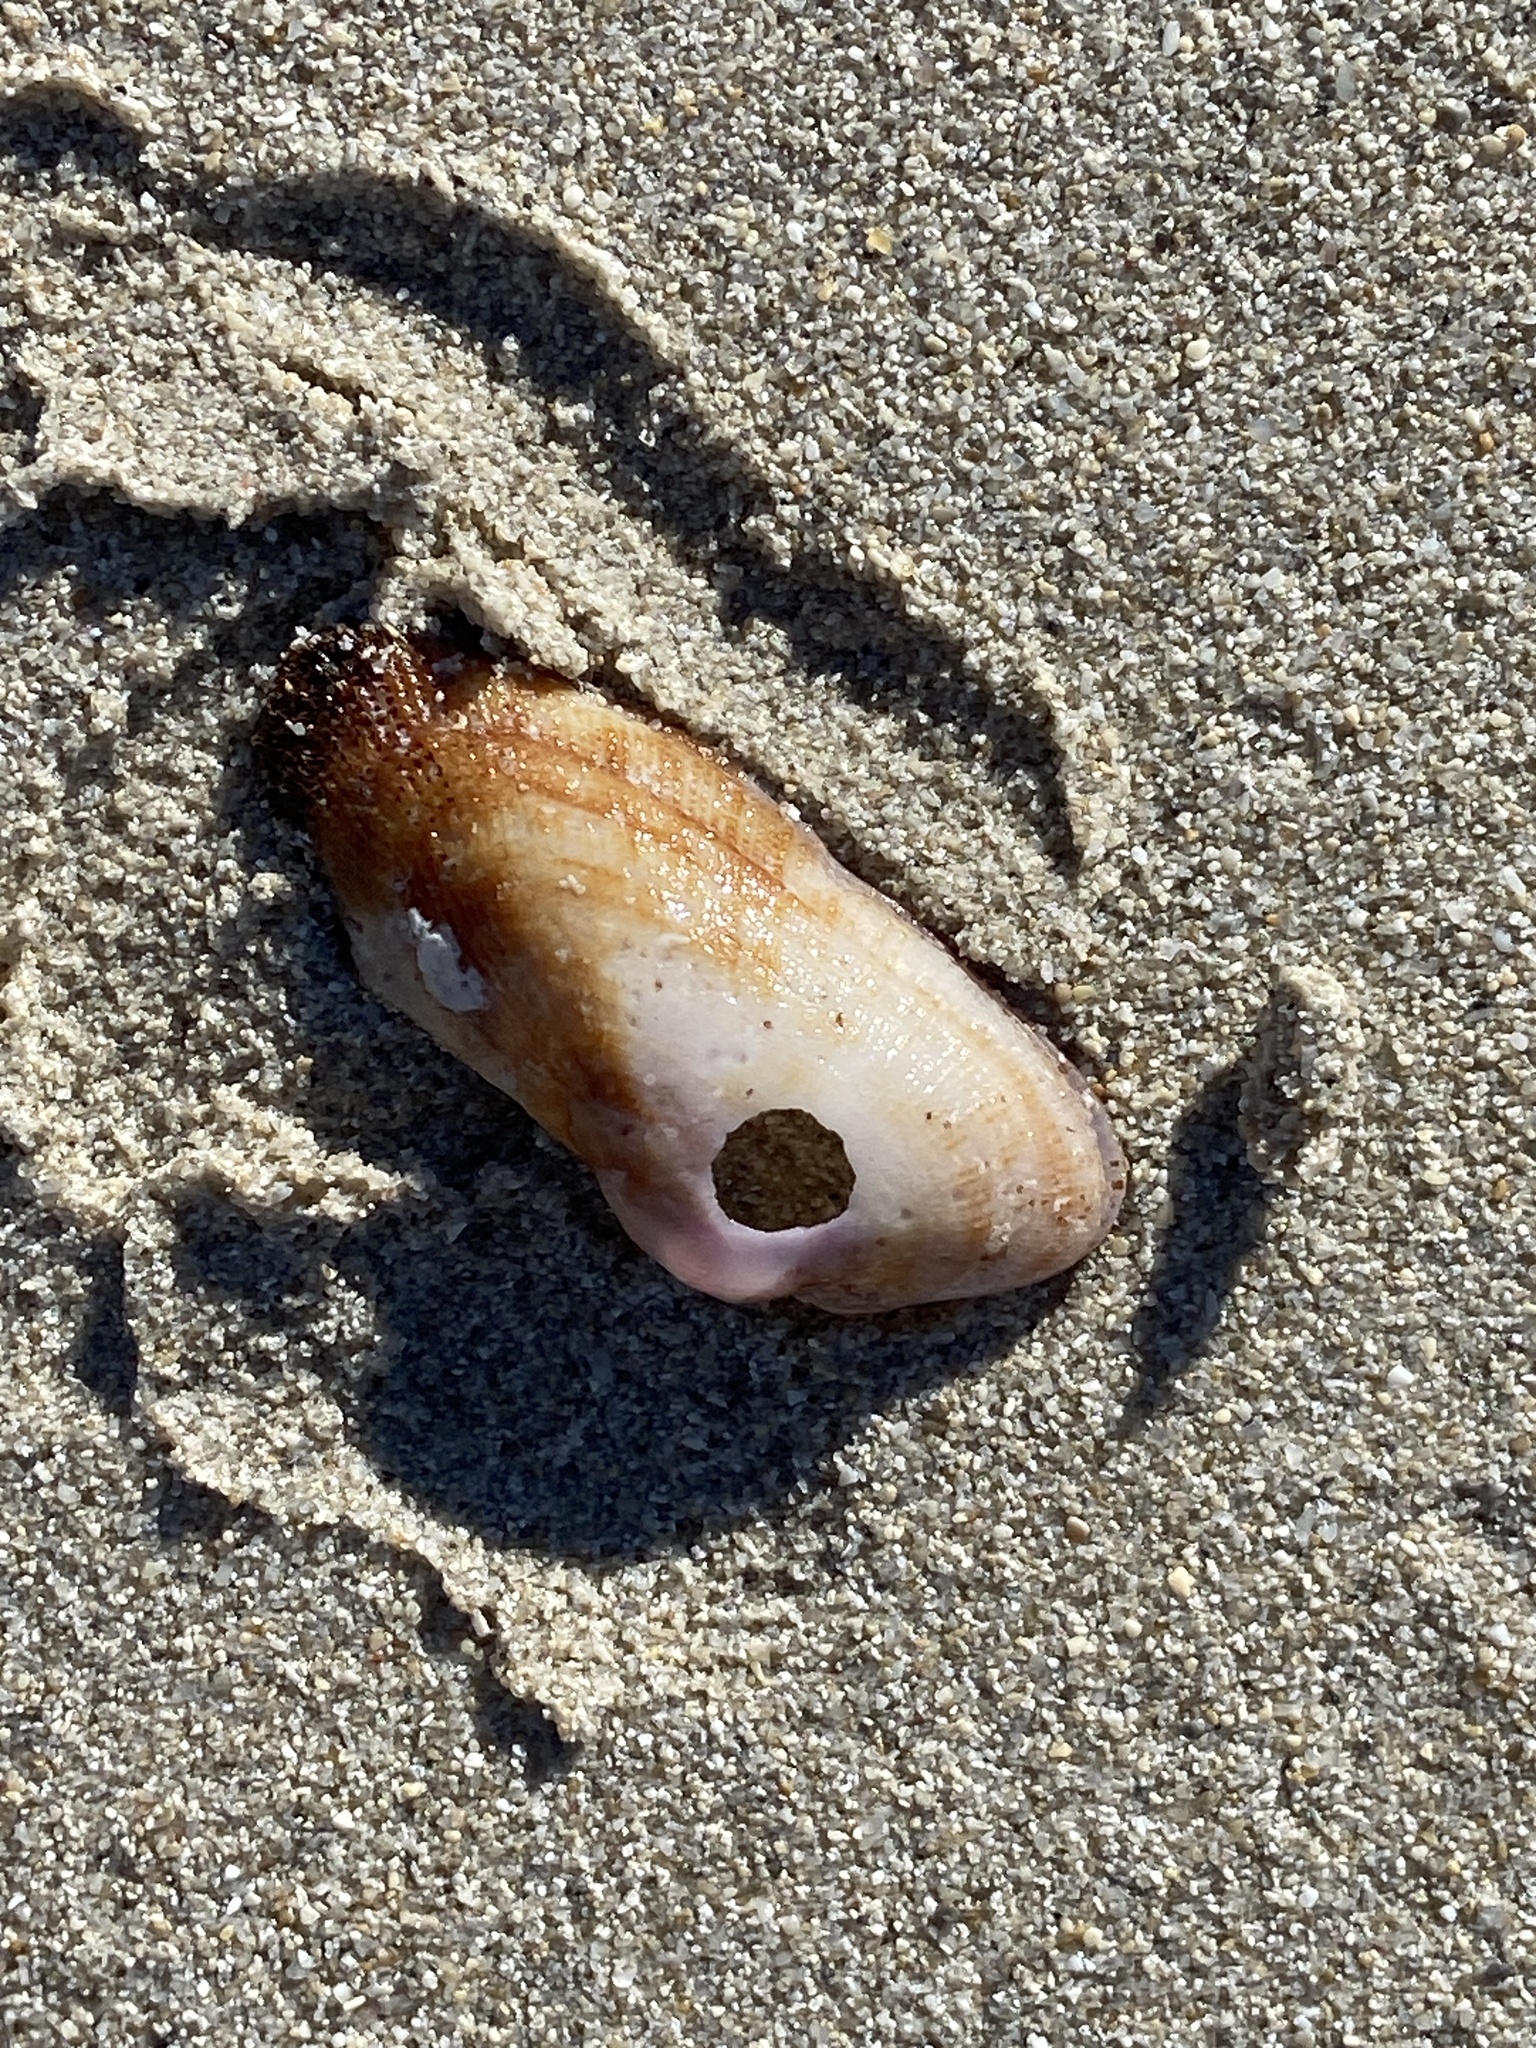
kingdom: Animalia
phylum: Mollusca
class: Bivalvia
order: Arcida
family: Arcidae
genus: Barbatia
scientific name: Barbatia barbata
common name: Bearded ark
